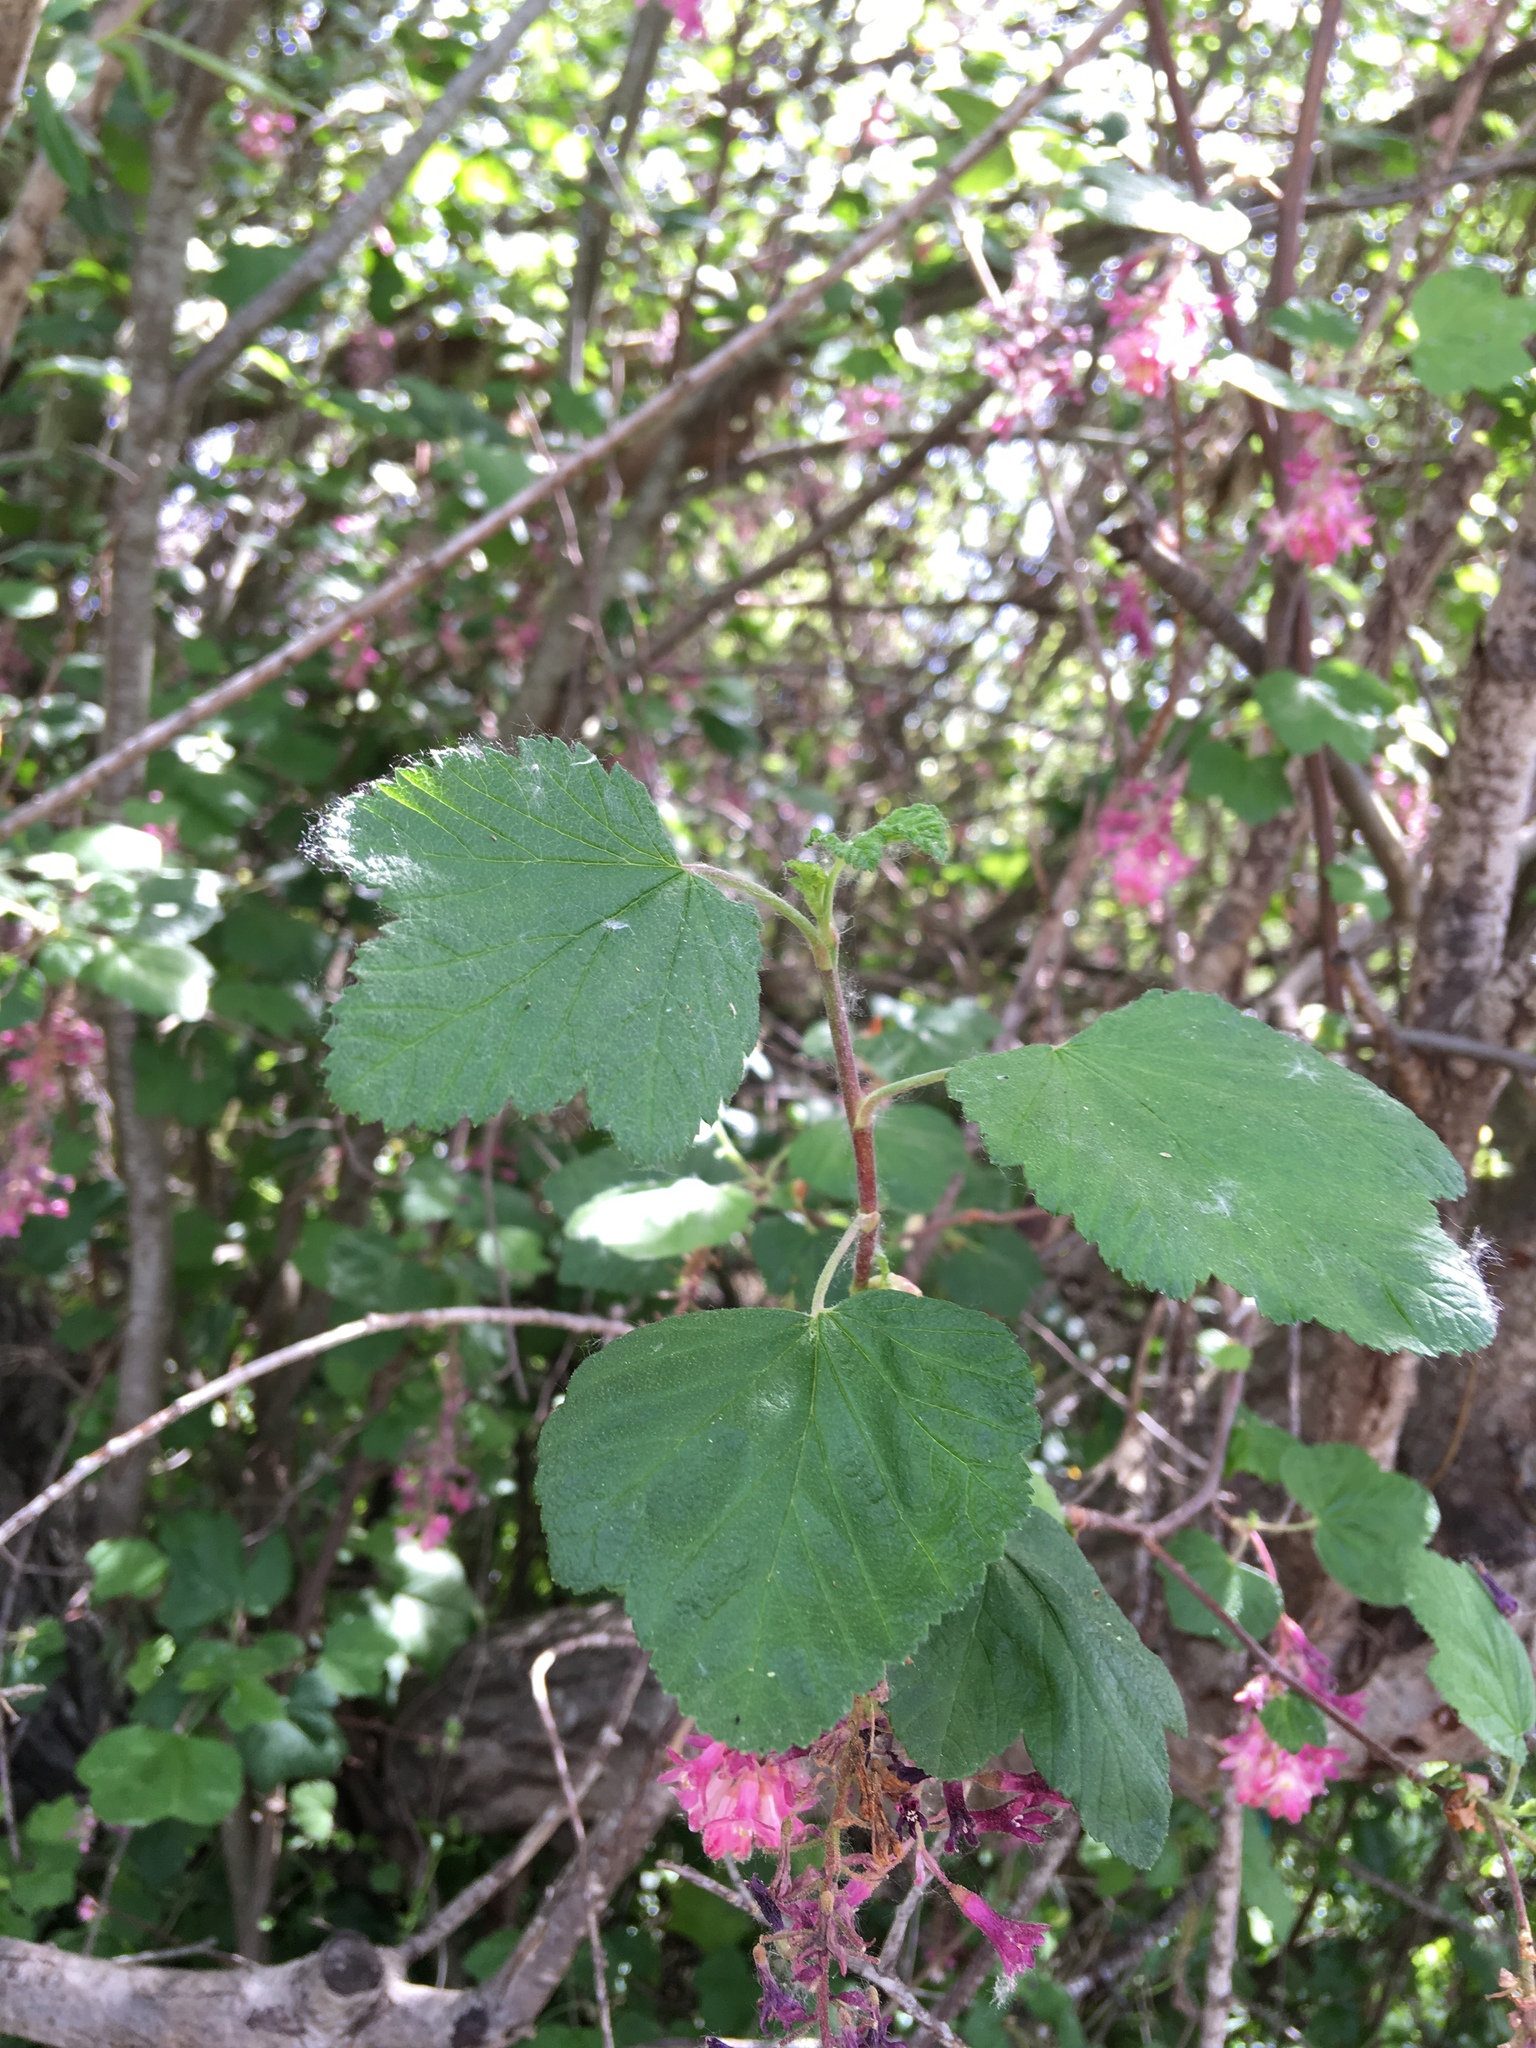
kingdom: Plantae
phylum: Tracheophyta
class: Magnoliopsida
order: Saxifragales
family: Grossulariaceae
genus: Ribes
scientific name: Ribes sanguineum
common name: Flowering currant
